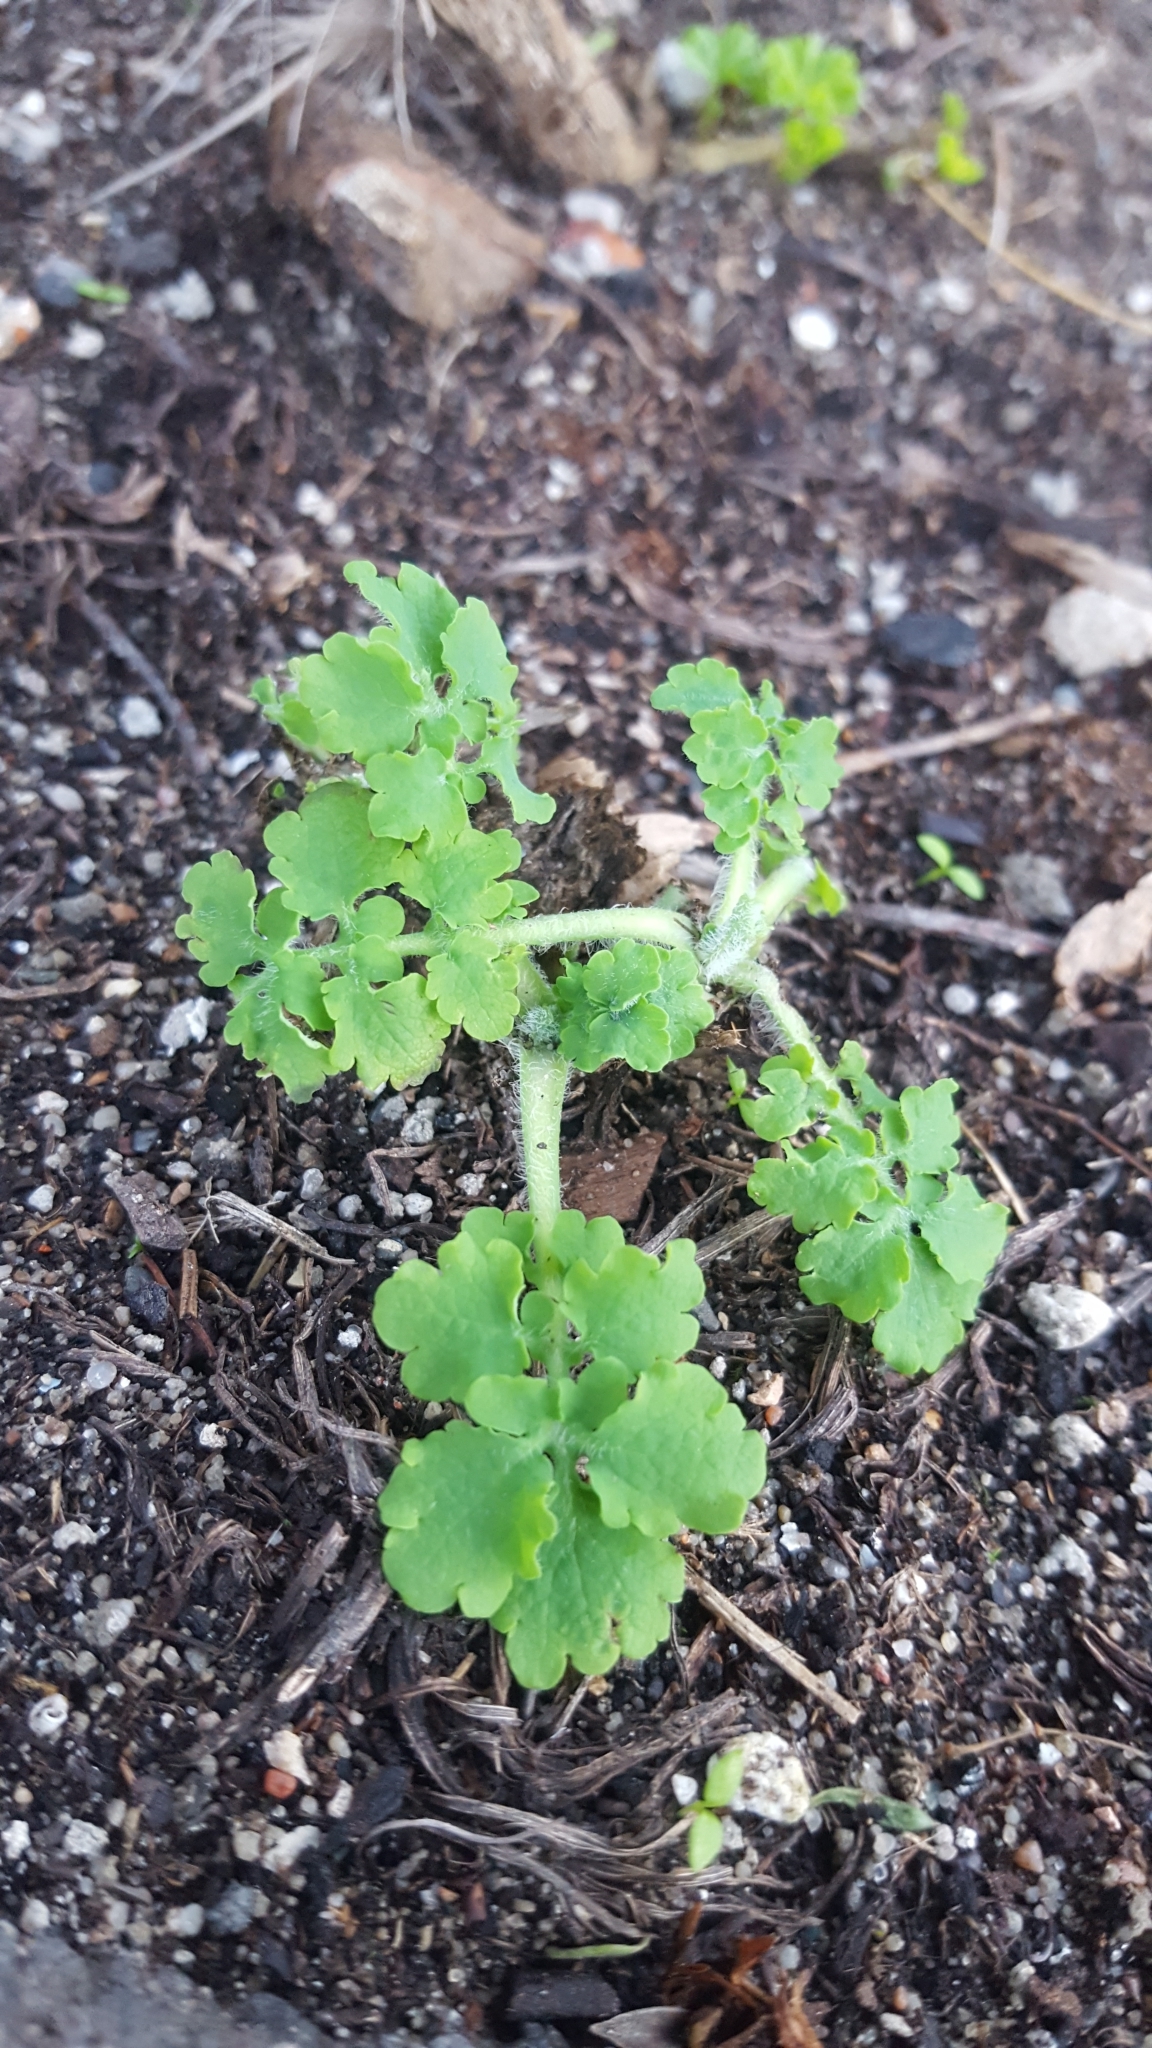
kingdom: Plantae
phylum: Tracheophyta
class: Magnoliopsida
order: Ranunculales
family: Papaveraceae
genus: Chelidonium
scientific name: Chelidonium majus
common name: Greater celandine
